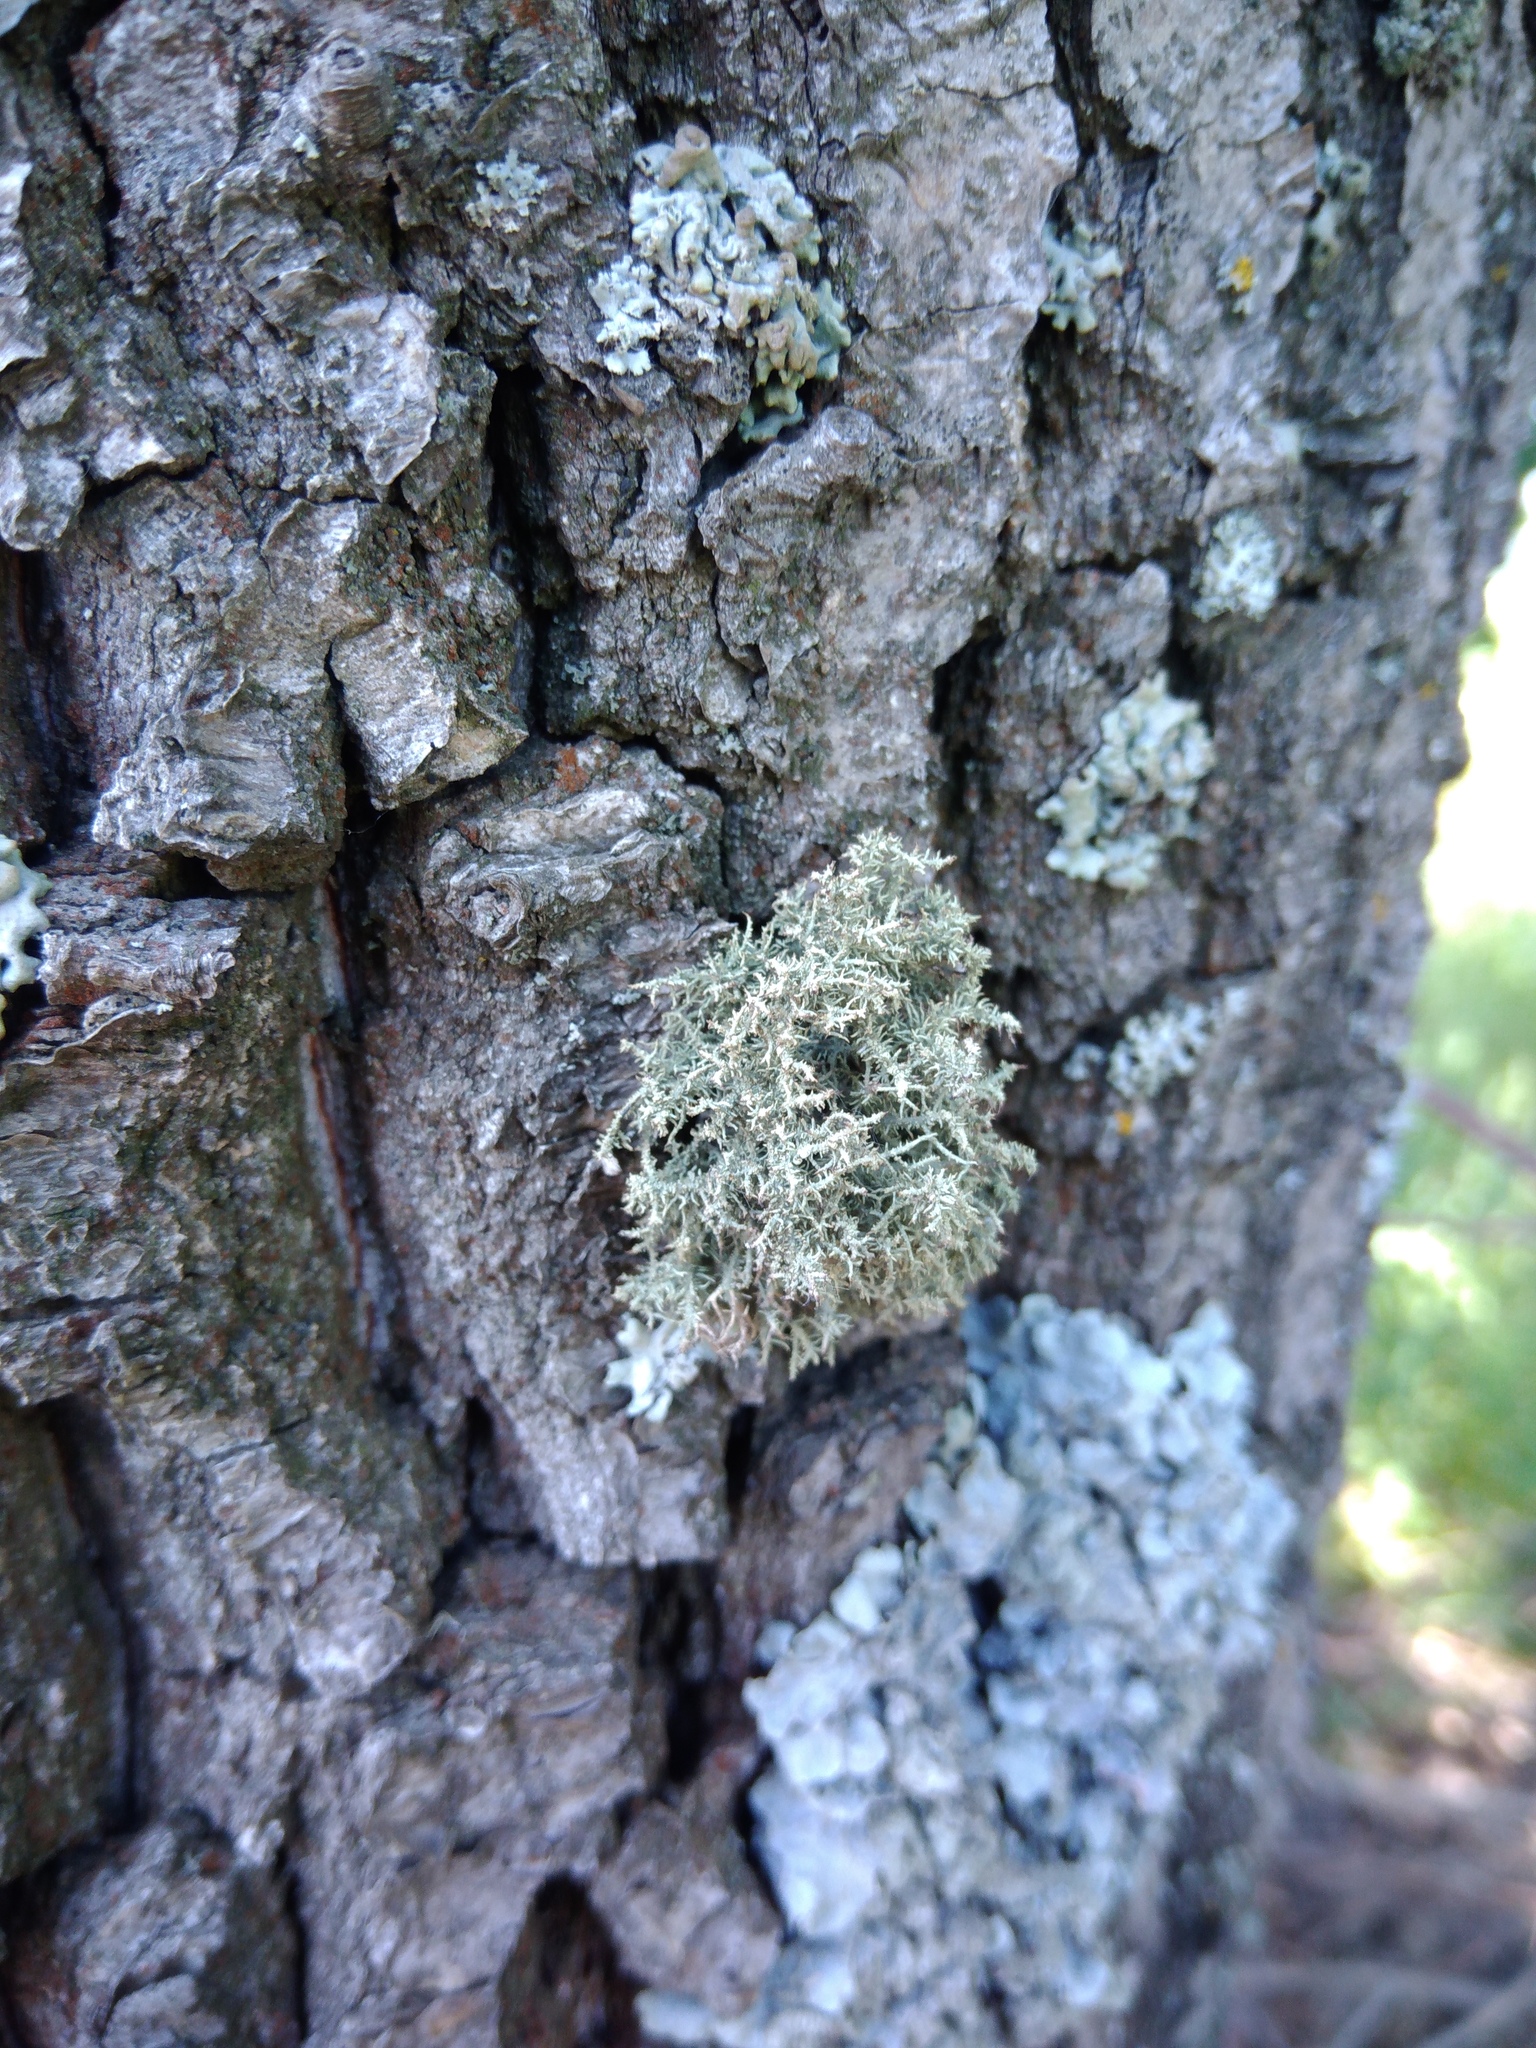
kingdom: Fungi
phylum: Ascomycota
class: Lecanoromycetes
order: Lecanorales
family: Parmeliaceae
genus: Usnea
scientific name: Usnea hirta
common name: Bristly beard lichen
